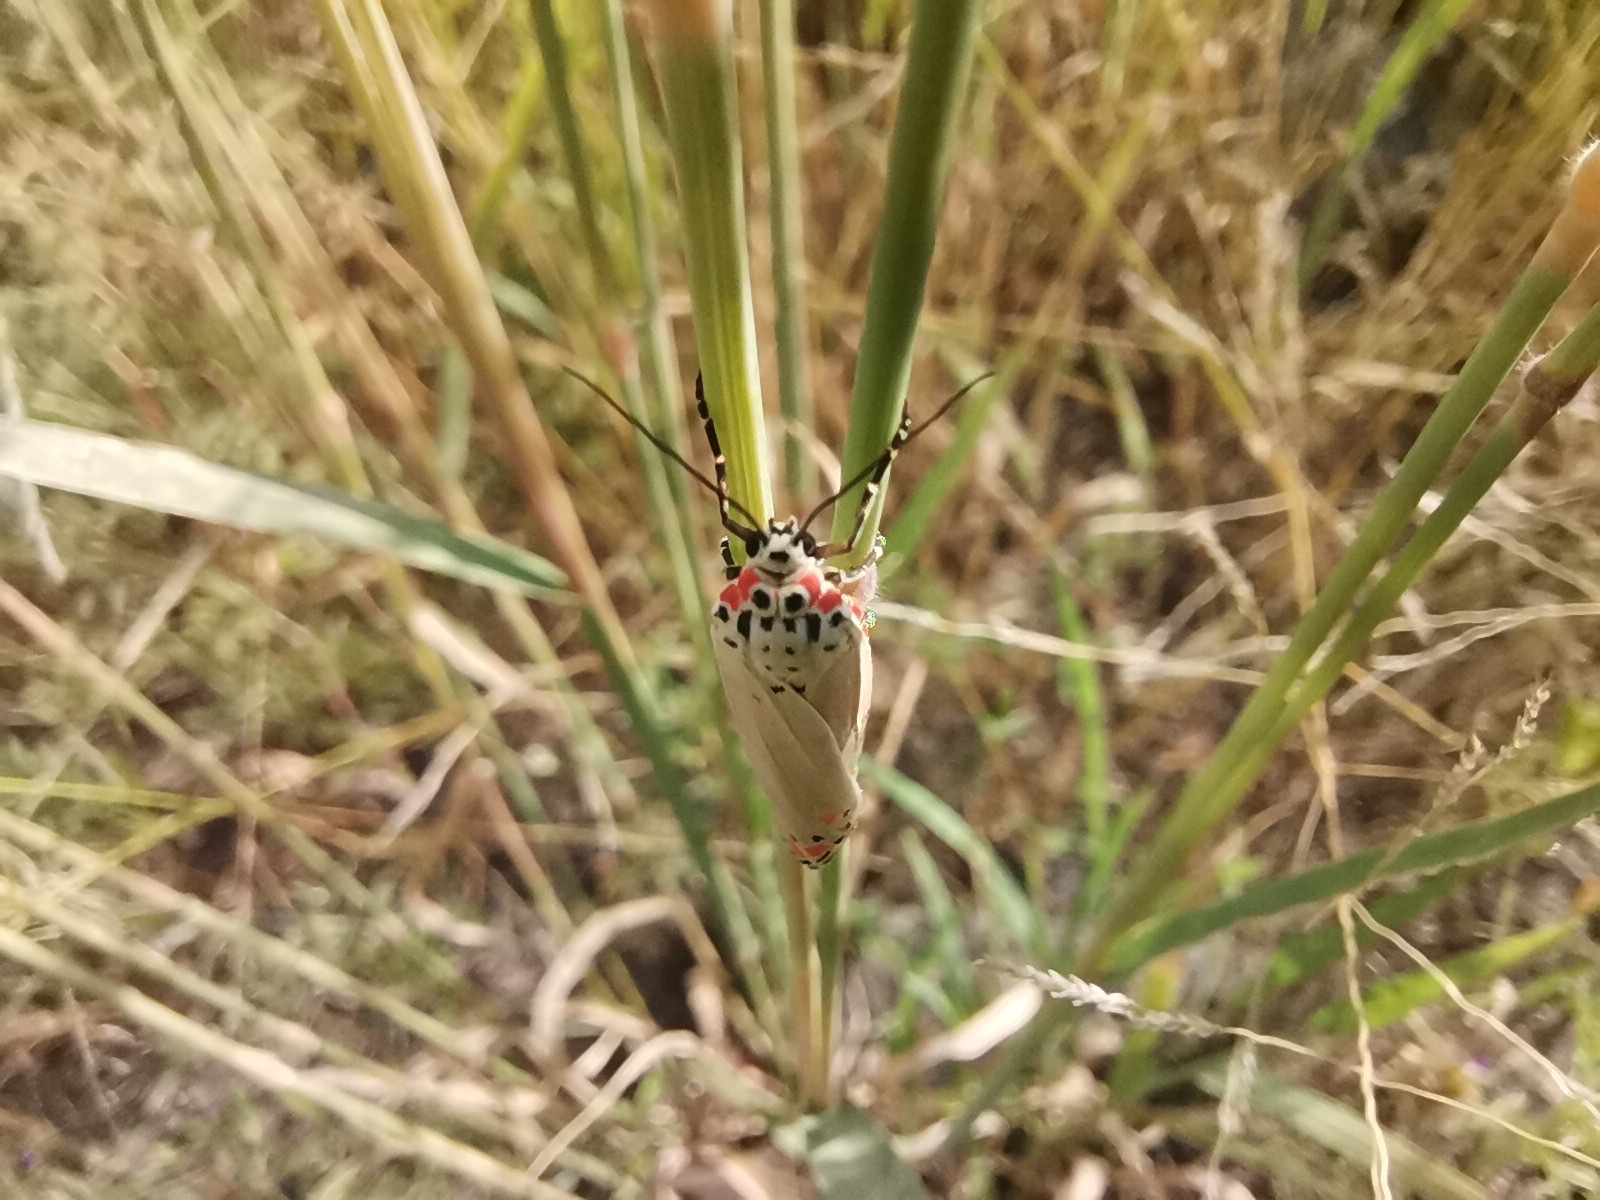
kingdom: Animalia
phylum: Arthropoda
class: Insecta
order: Lepidoptera
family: Erebidae
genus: Utetheisa
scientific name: Utetheisa ornatrix
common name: Beautiful utetheisa
